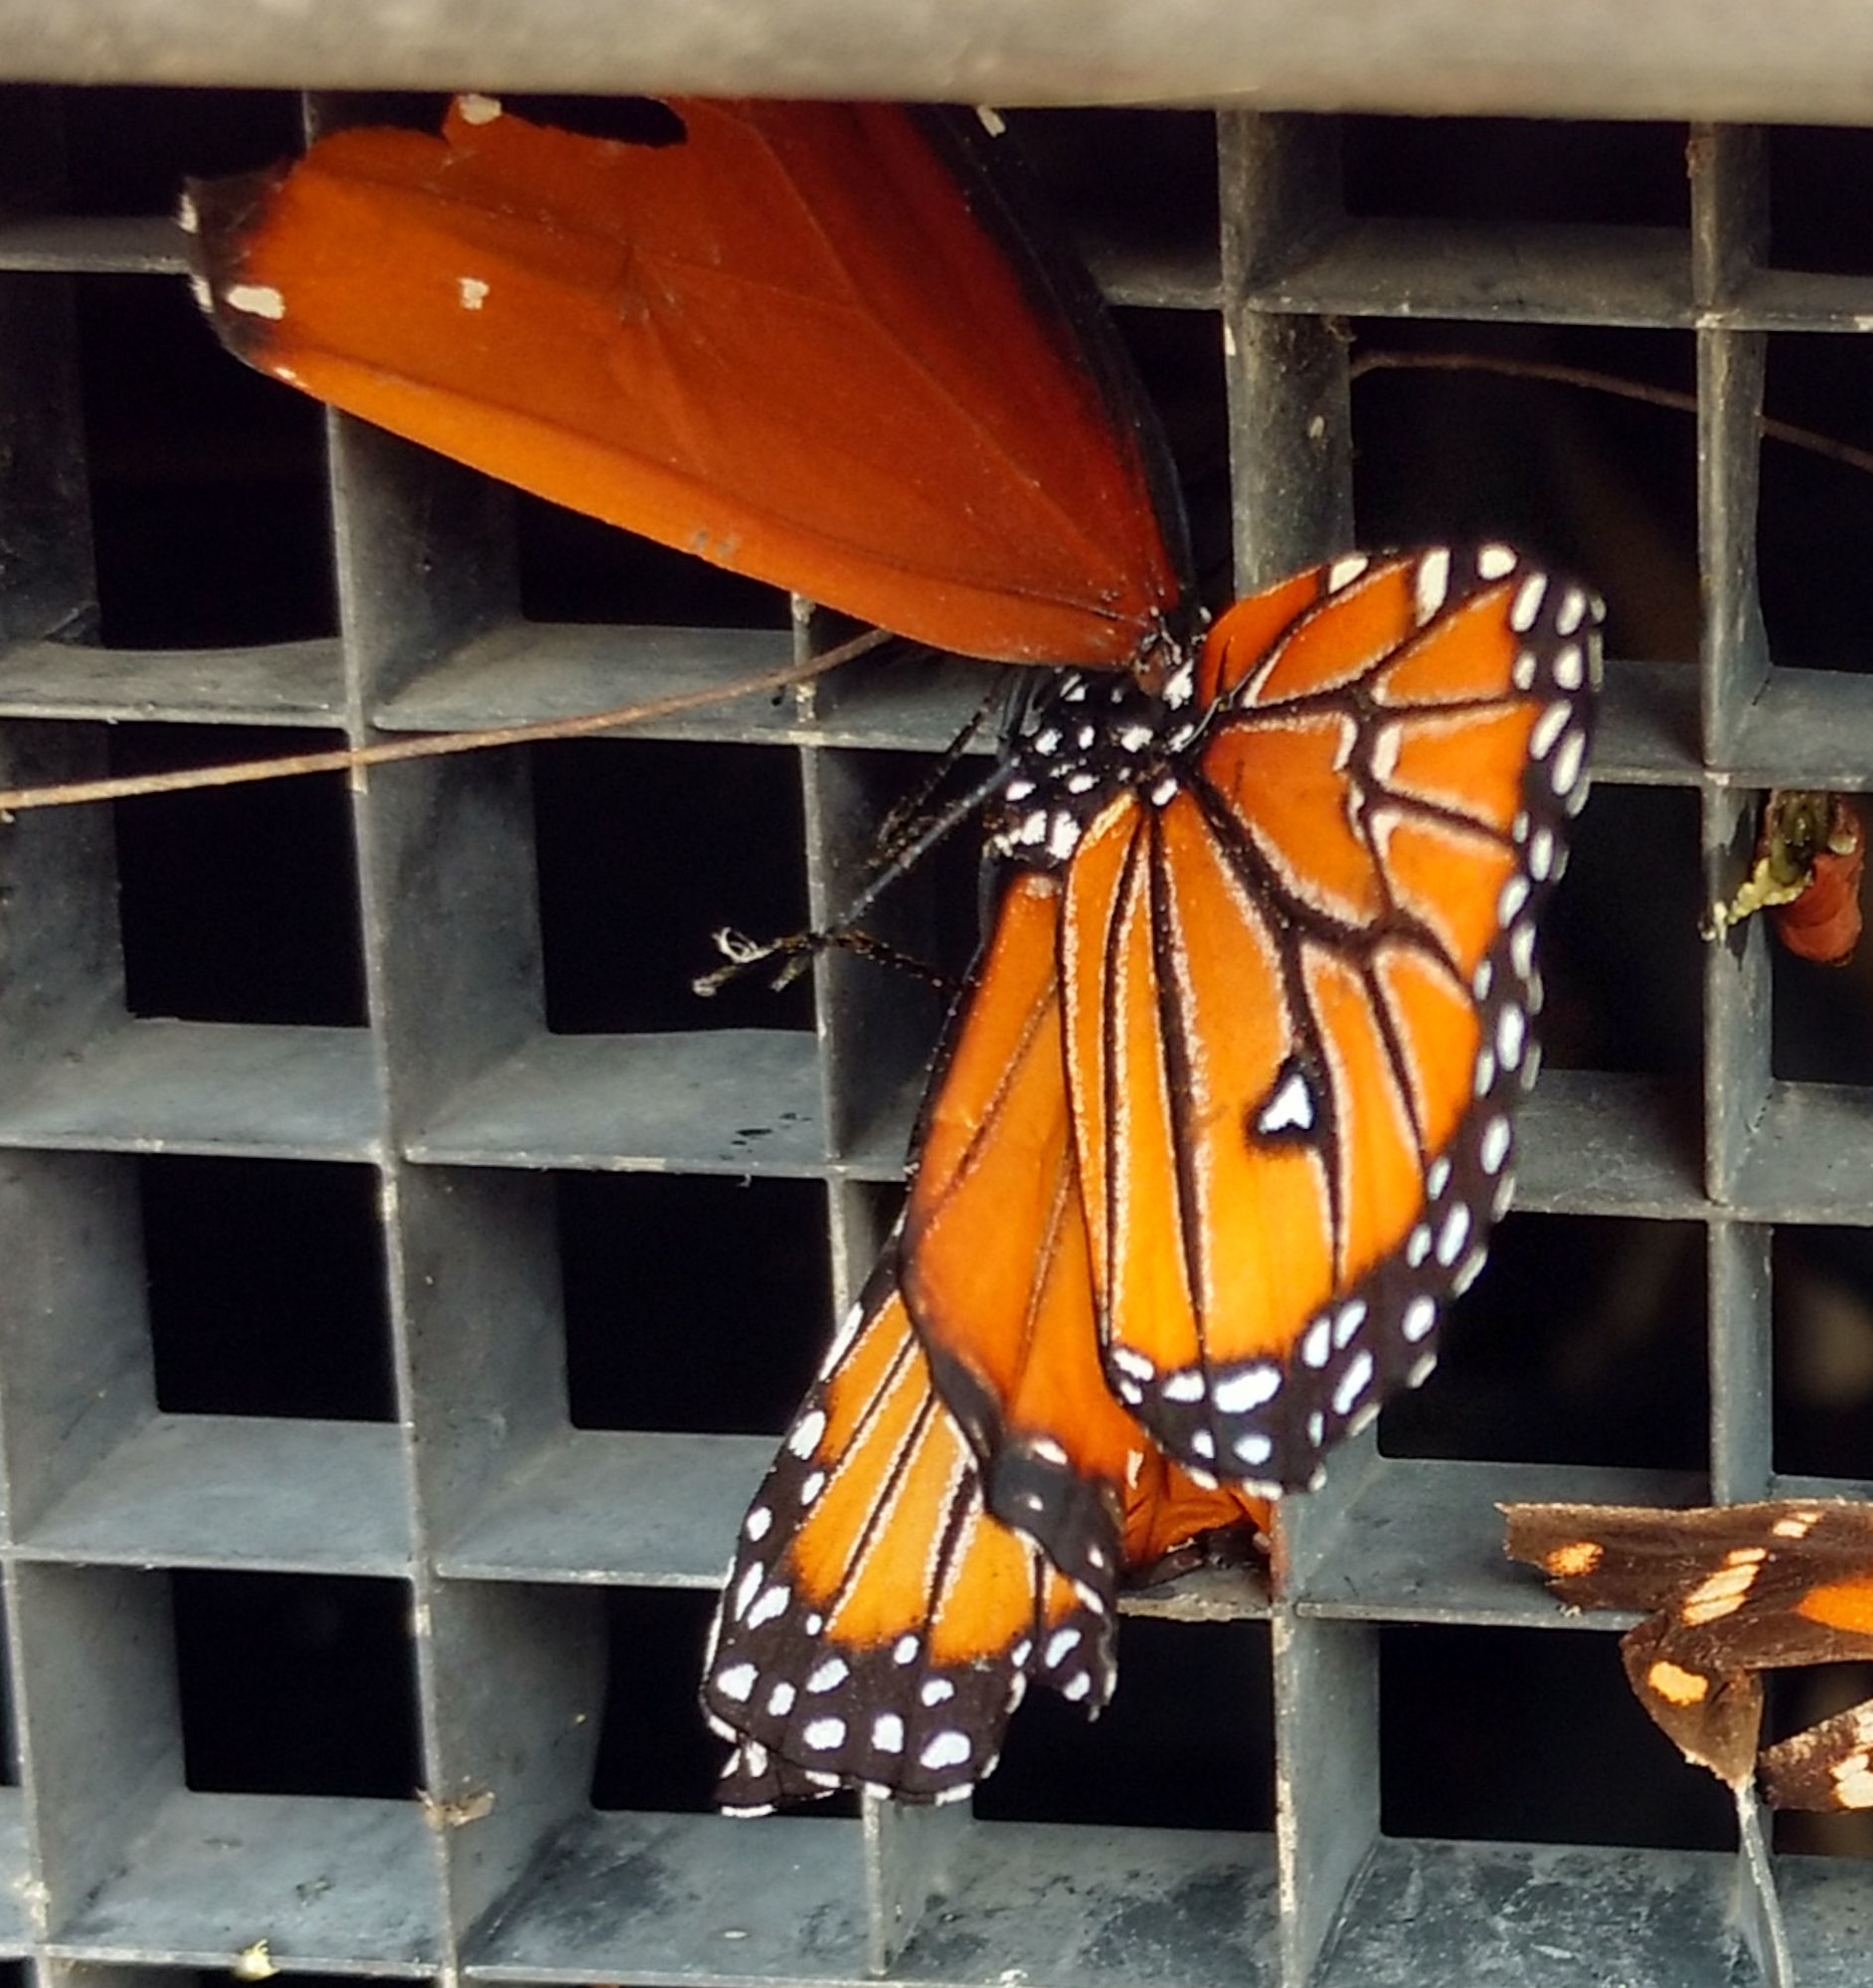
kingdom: Animalia
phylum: Arthropoda
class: Insecta
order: Lepidoptera
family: Nymphalidae
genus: Danaus
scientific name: Danaus gilippus
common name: Queen
